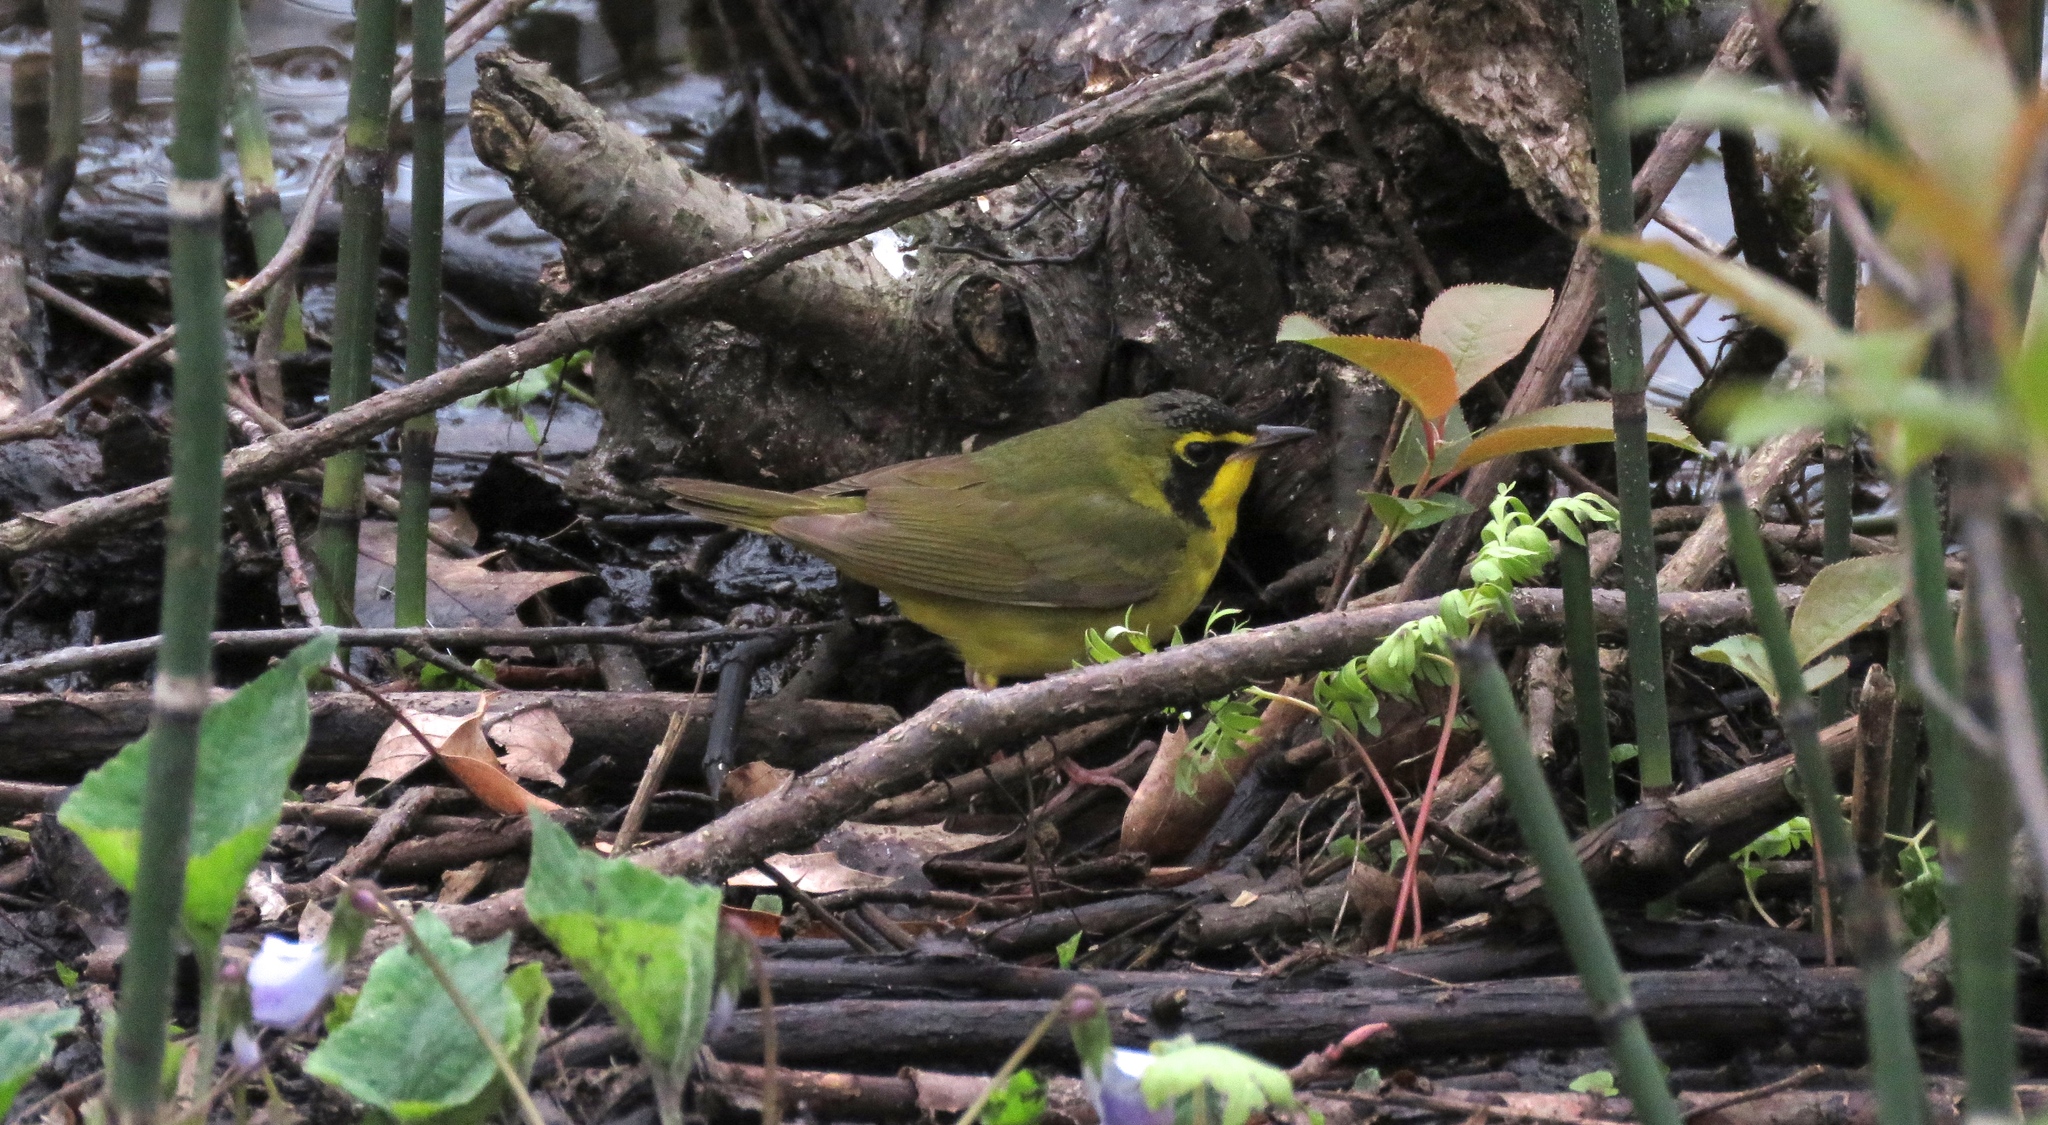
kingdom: Animalia
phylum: Chordata
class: Aves
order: Passeriformes
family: Parulidae
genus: Geothlypis
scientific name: Geothlypis formosa
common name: Kentucky warbler
